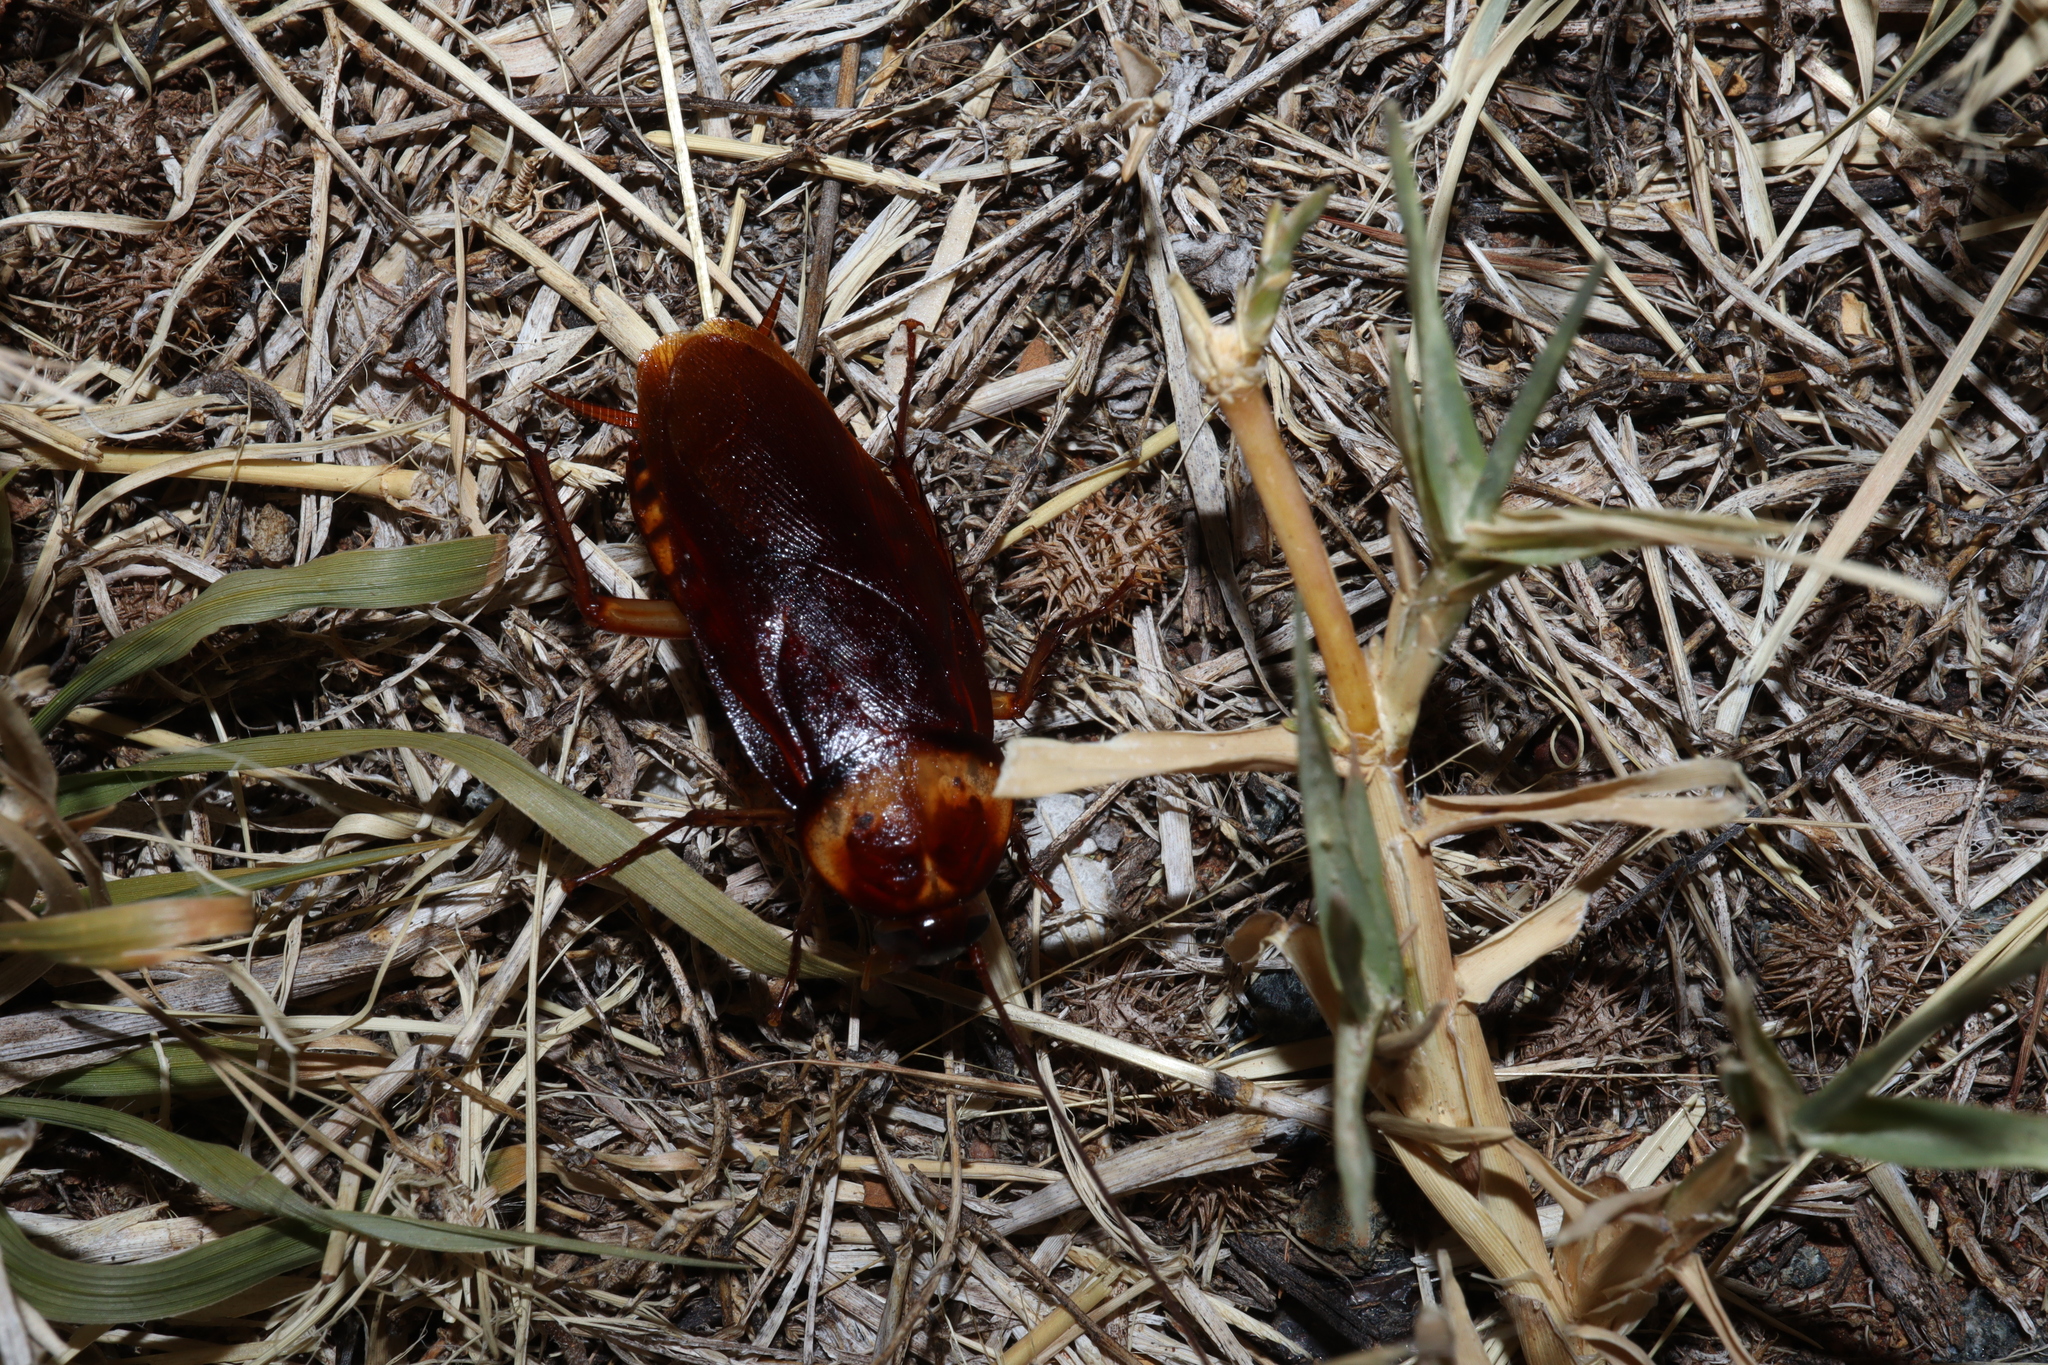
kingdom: Animalia
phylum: Arthropoda
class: Insecta
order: Blattodea
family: Blattidae
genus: Periplaneta
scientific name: Periplaneta americana
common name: American cockroach
